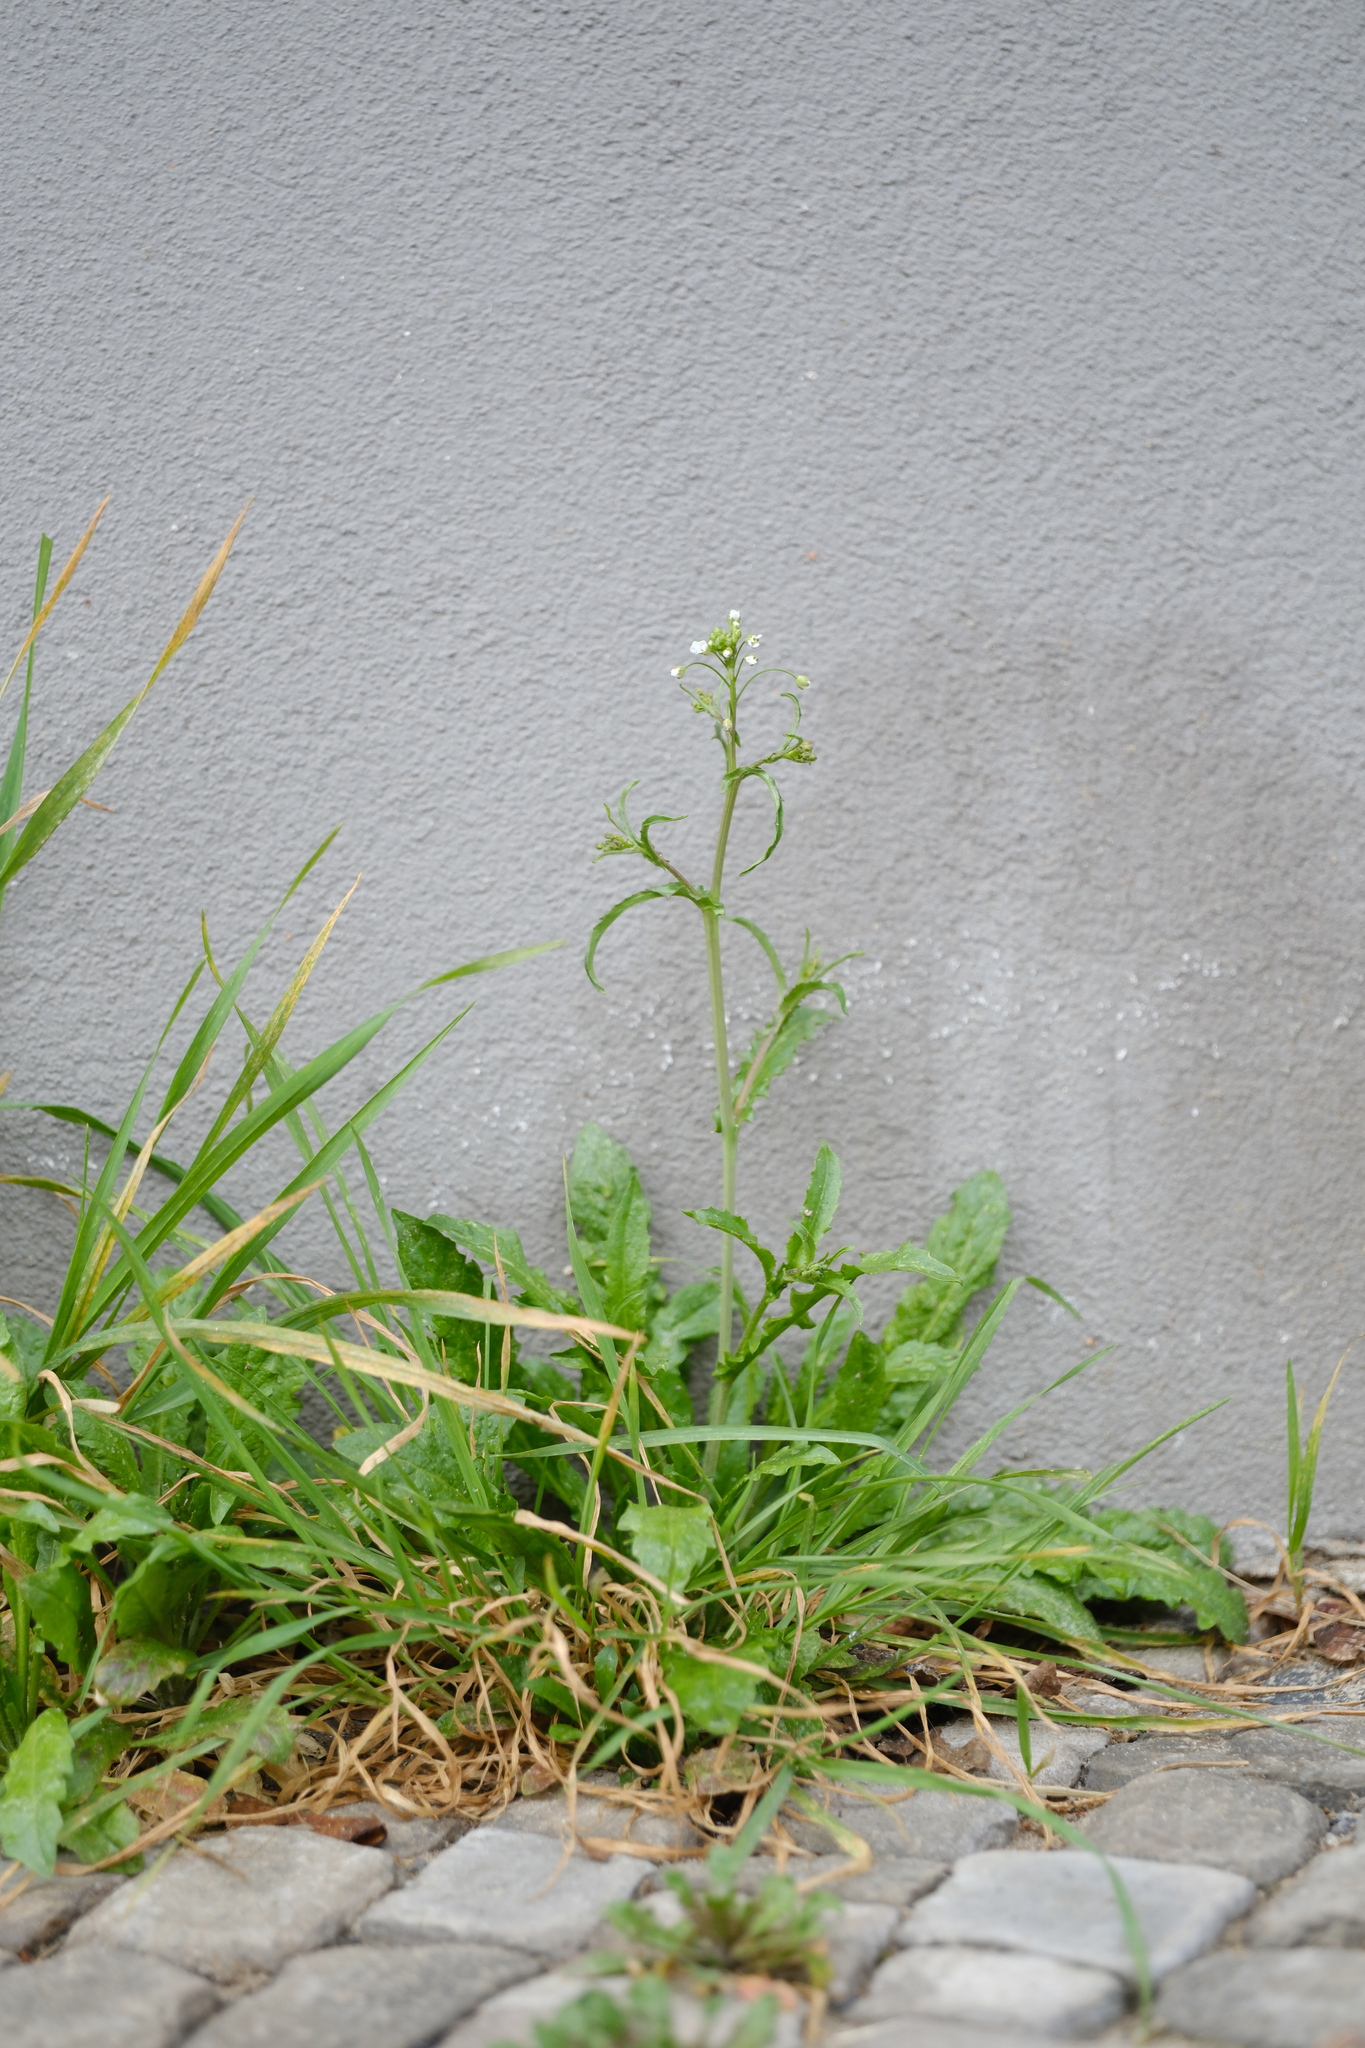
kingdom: Plantae
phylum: Tracheophyta
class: Magnoliopsida
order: Brassicales
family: Brassicaceae
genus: Capsella
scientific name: Capsella bursa-pastoris
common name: Shepherd's purse
